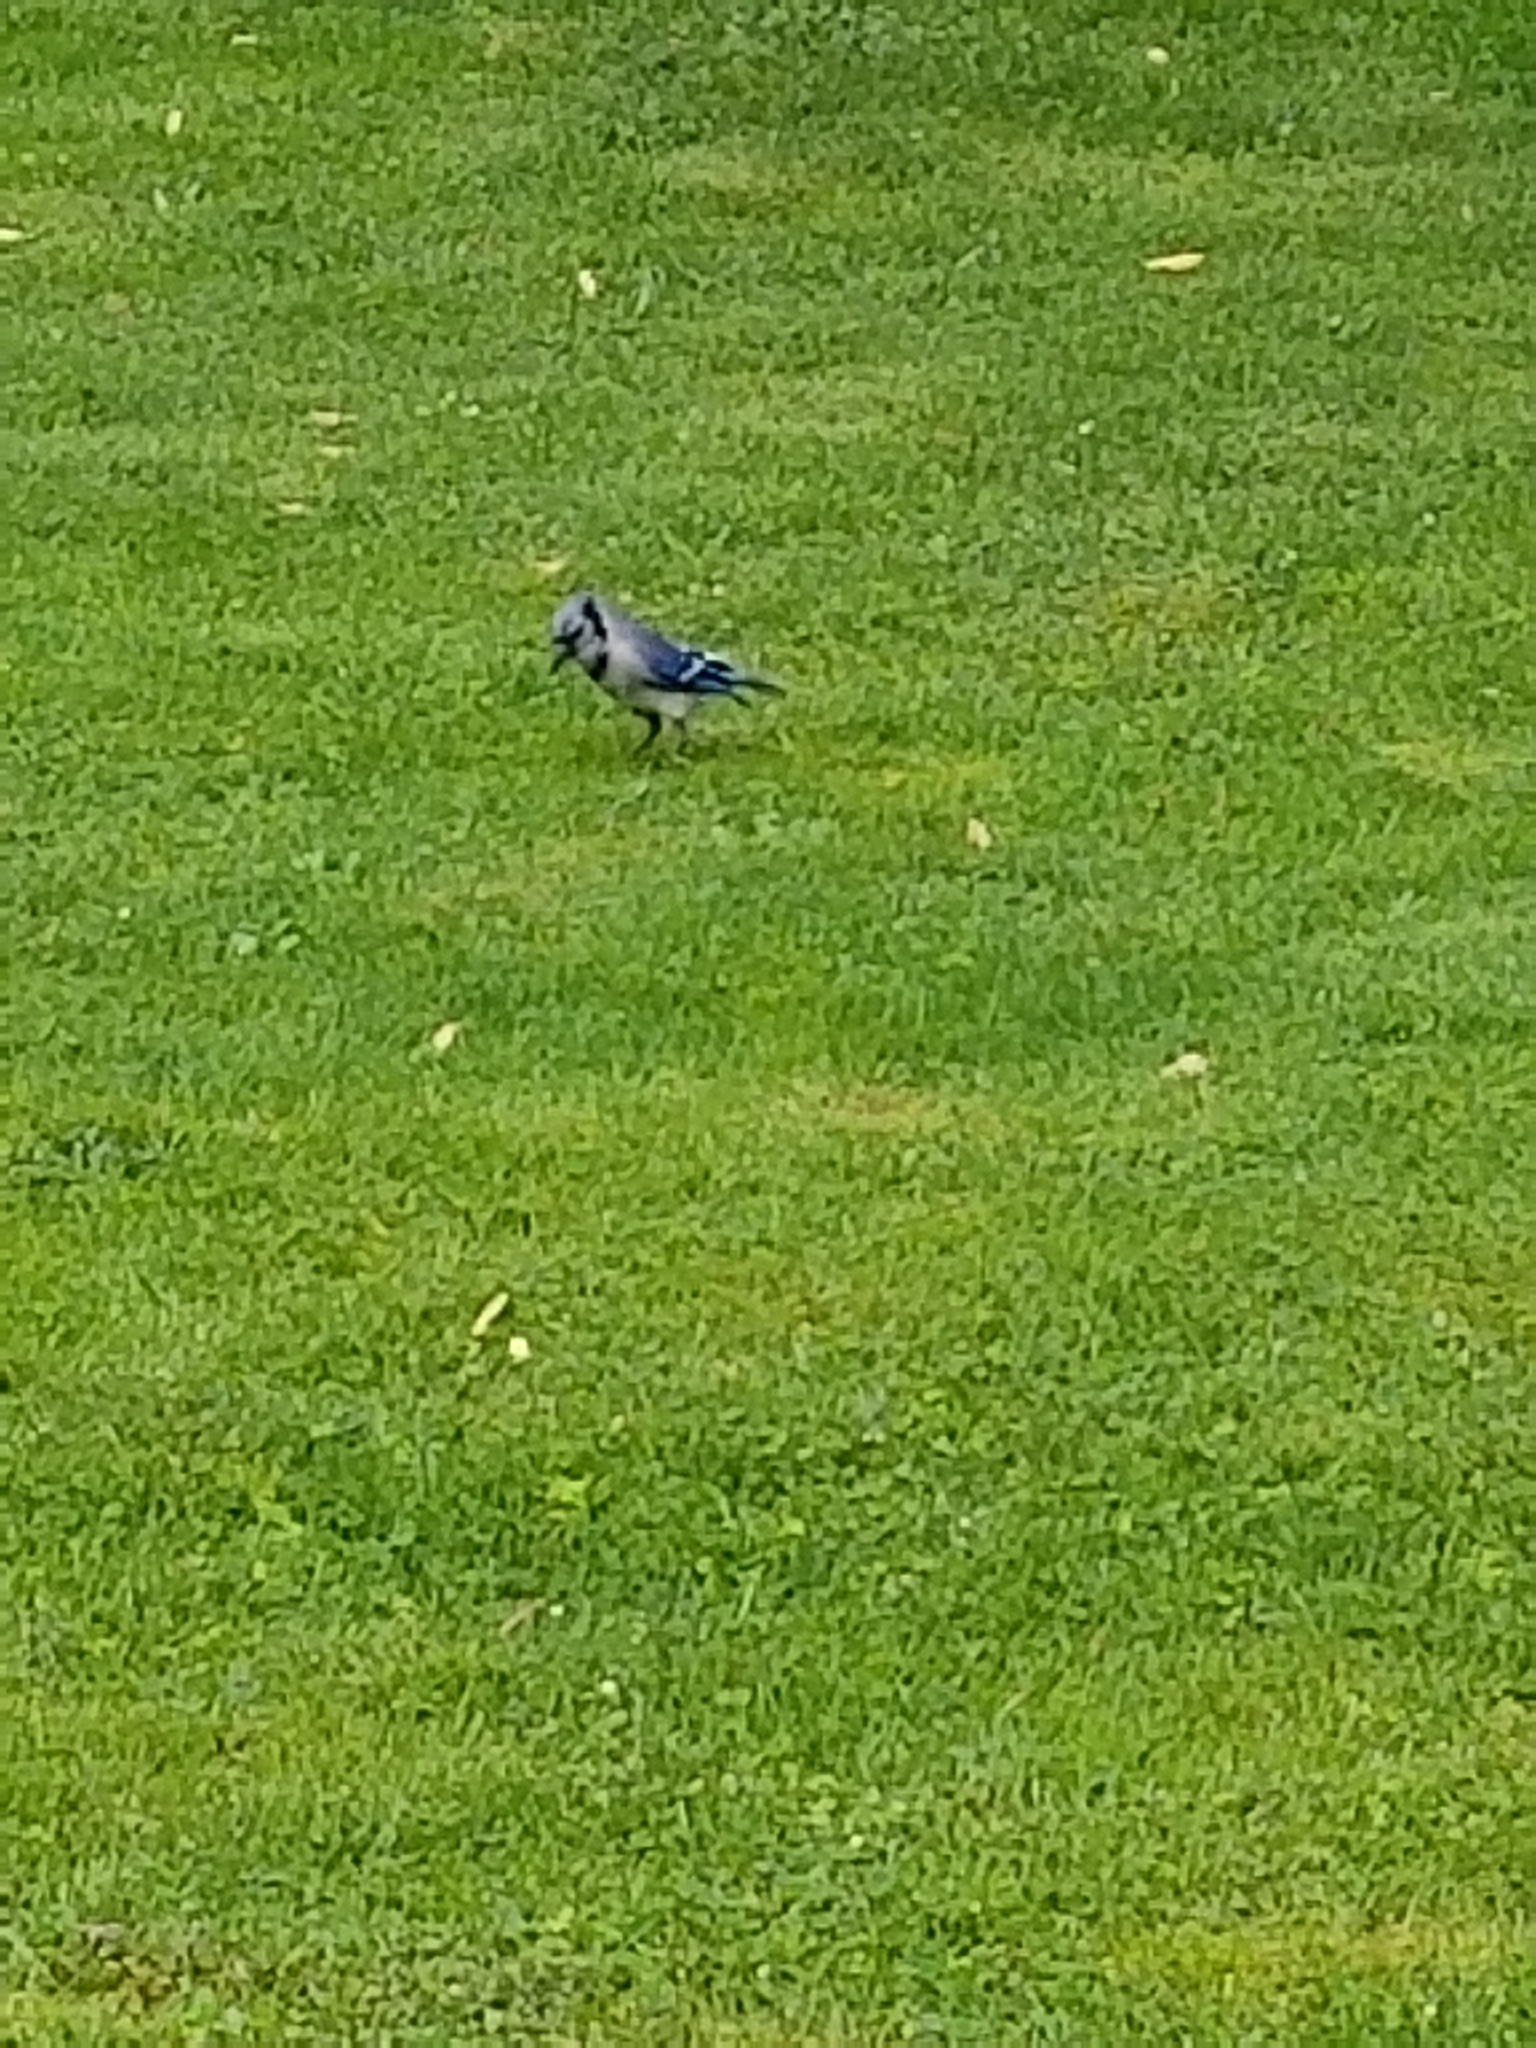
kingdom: Animalia
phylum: Chordata
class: Aves
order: Passeriformes
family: Corvidae
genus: Cyanocitta
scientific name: Cyanocitta cristata
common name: Blue jay
